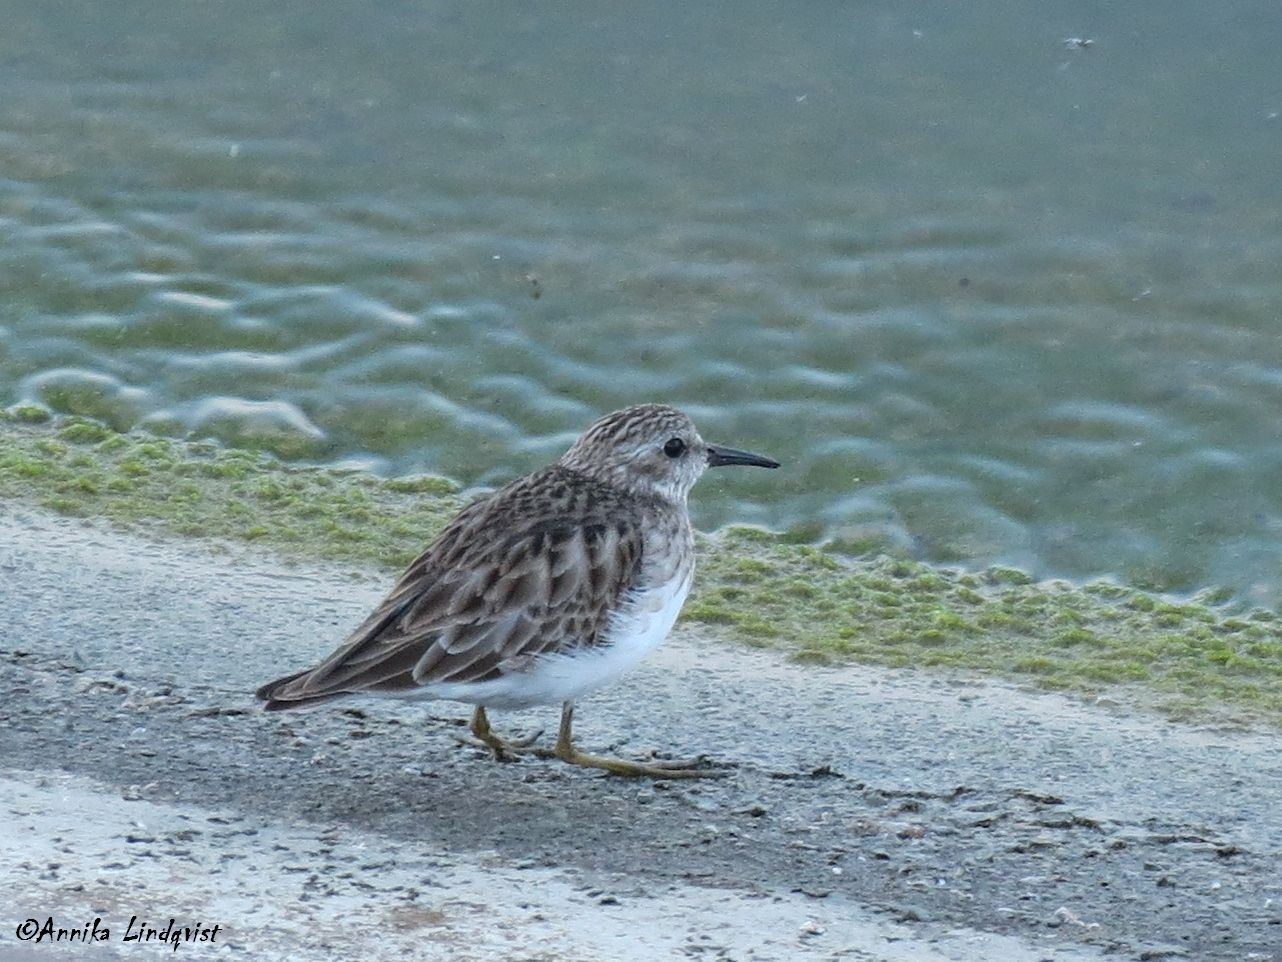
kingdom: Animalia
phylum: Chordata
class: Aves
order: Charadriiformes
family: Scolopacidae
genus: Calidris
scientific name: Calidris minutilla
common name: Least sandpiper
